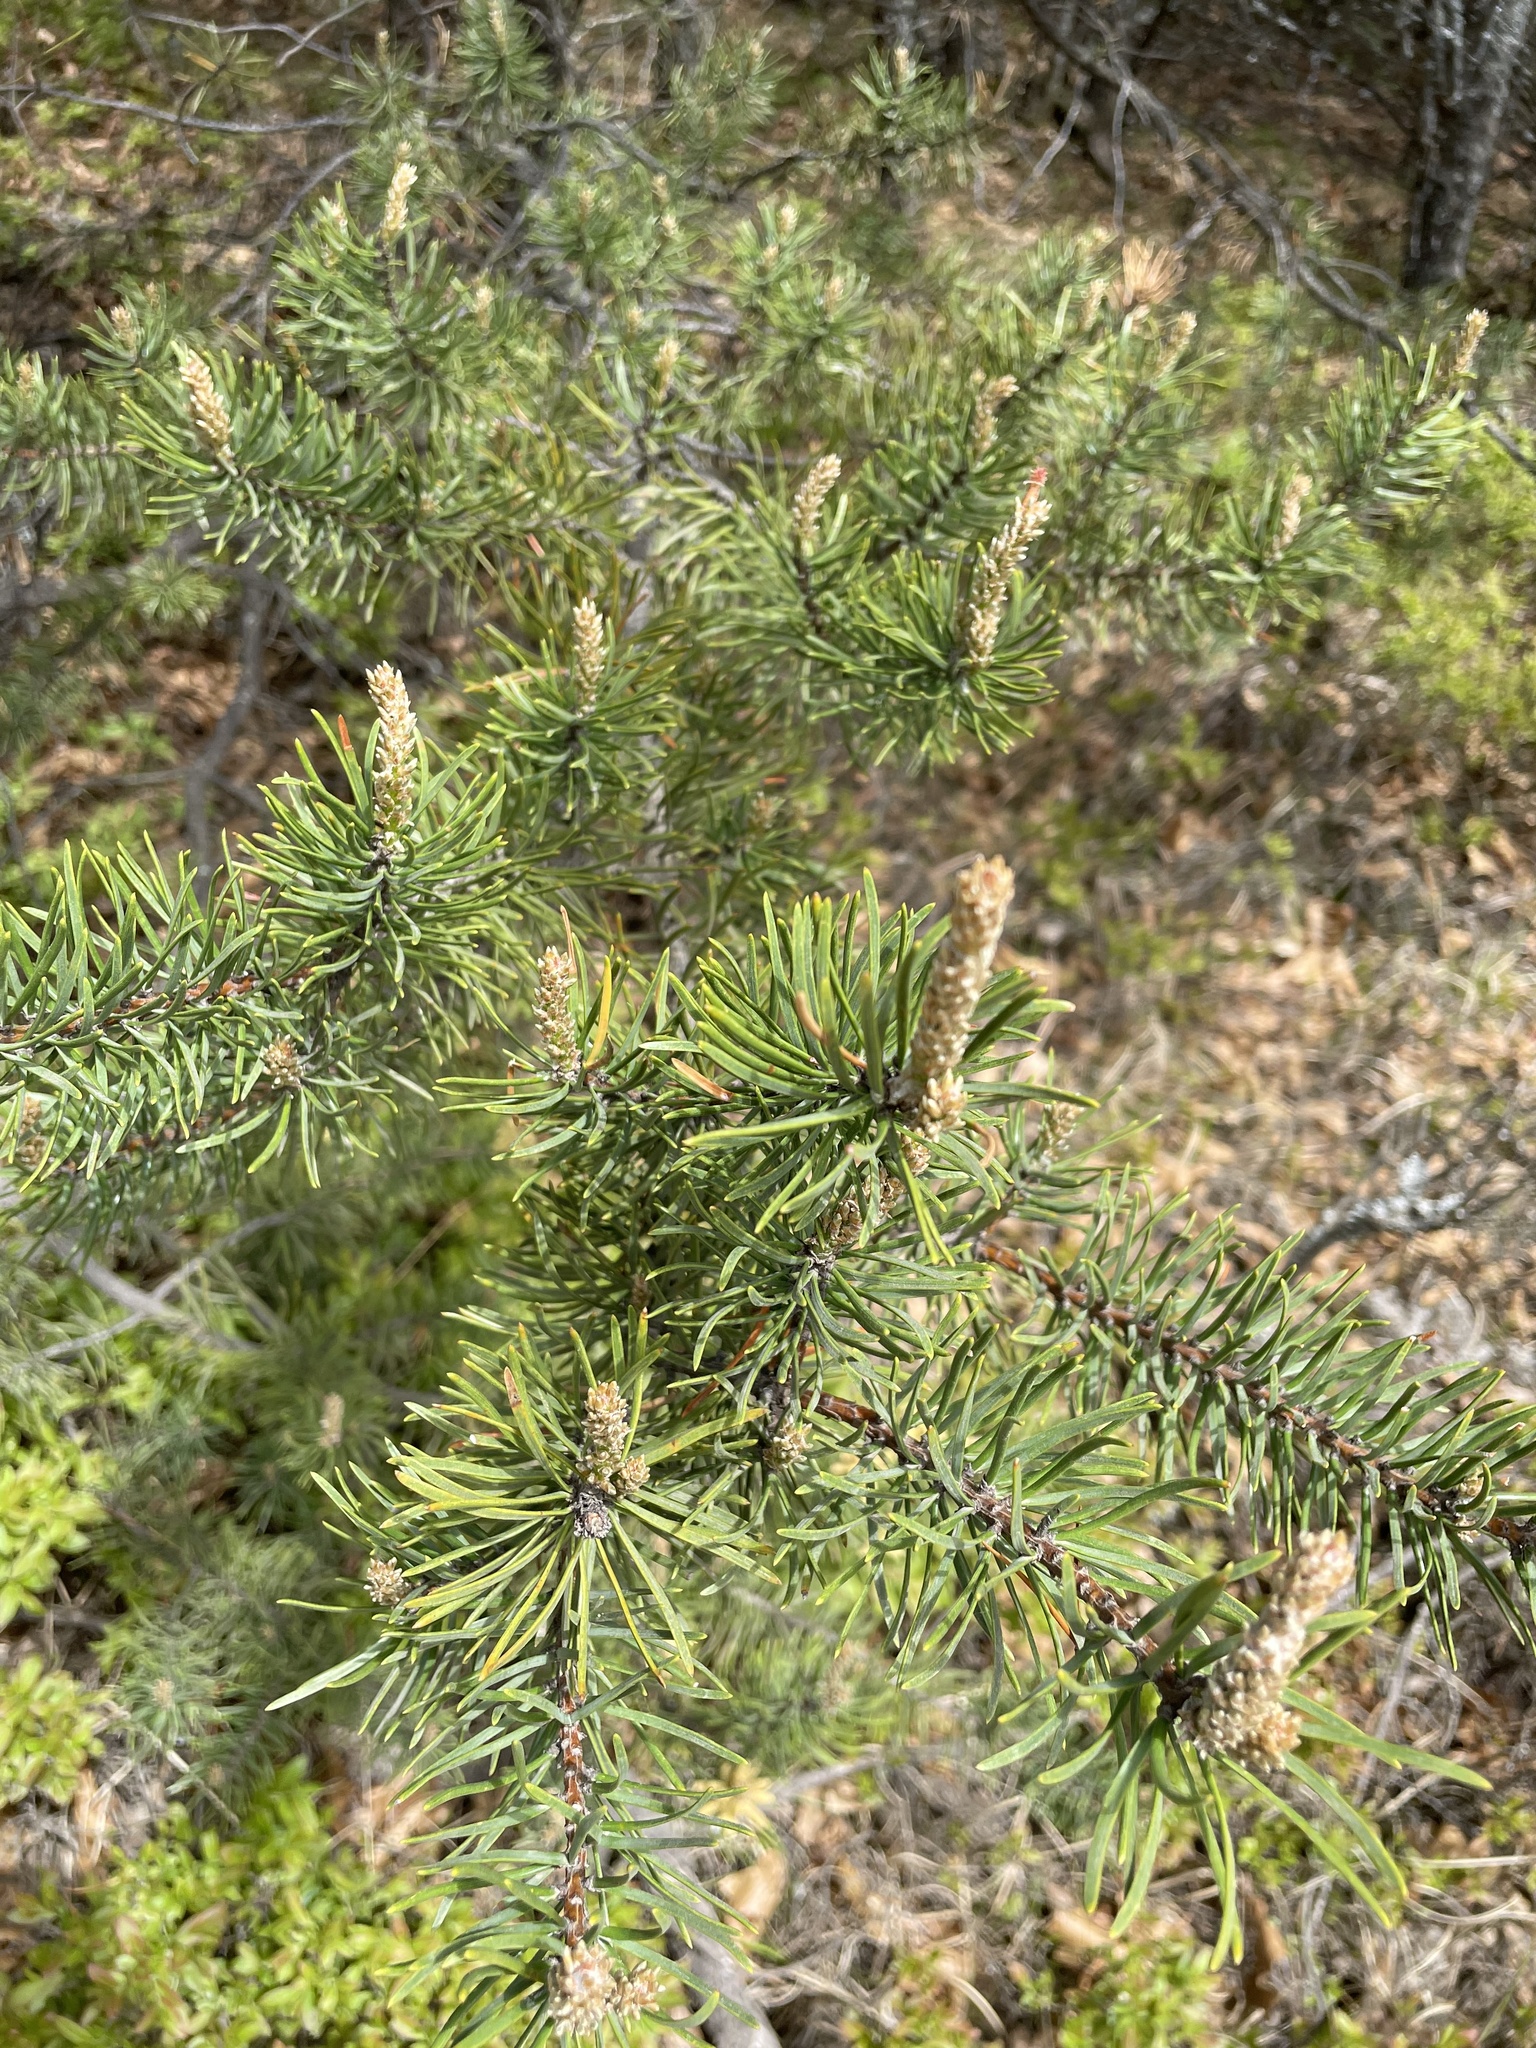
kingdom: Plantae
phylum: Tracheophyta
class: Pinopsida
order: Pinales
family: Pinaceae
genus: Pinus
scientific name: Pinus banksiana
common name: Jack pine
